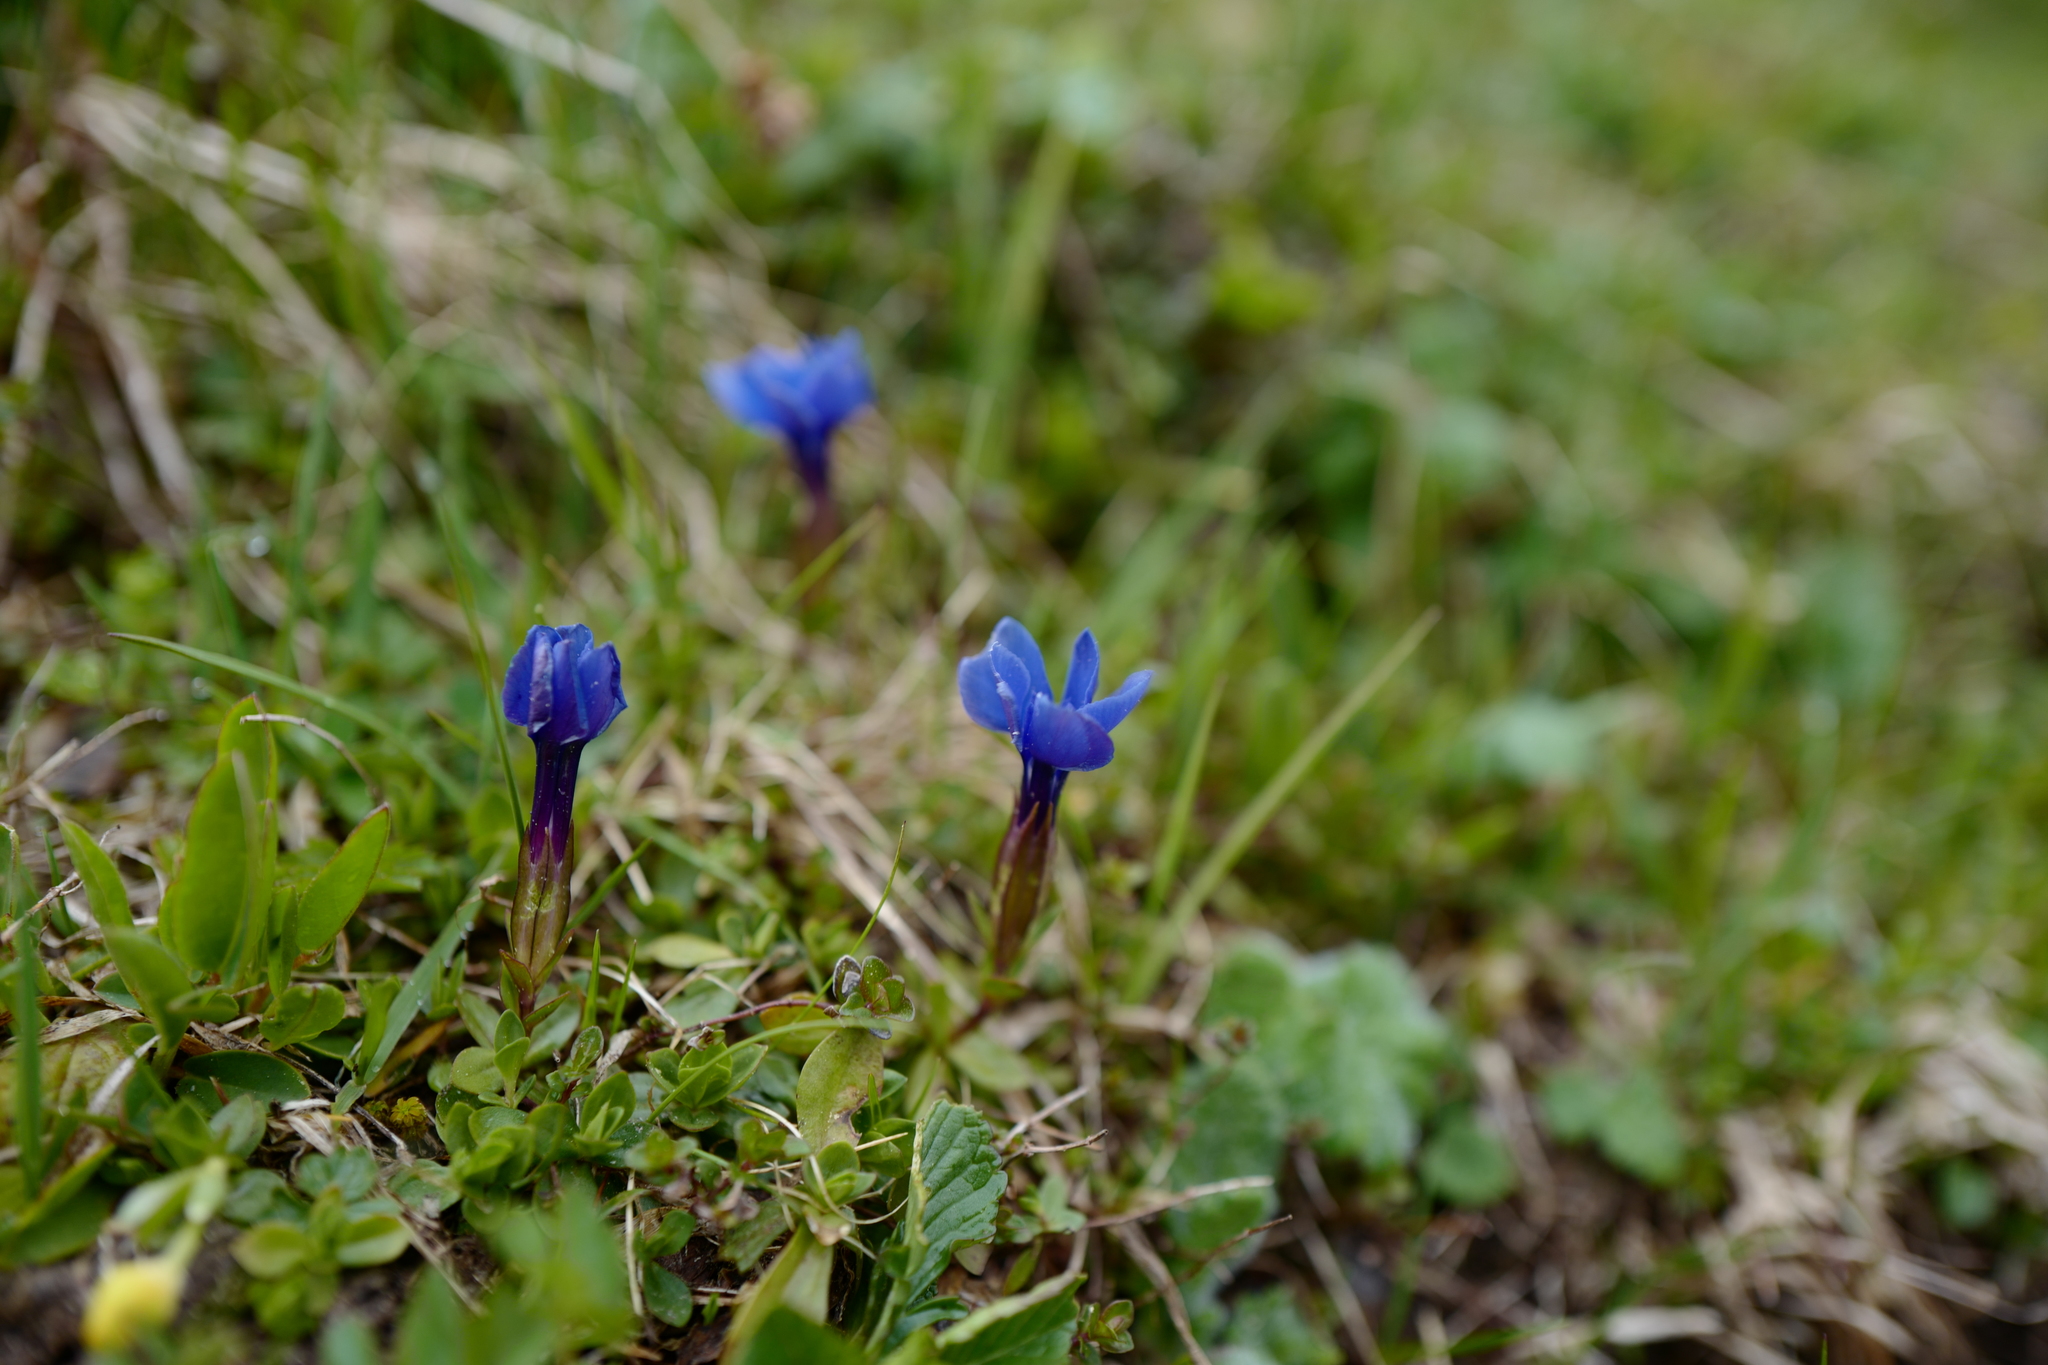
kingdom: Plantae
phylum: Tracheophyta
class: Magnoliopsida
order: Gentianales
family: Gentianaceae
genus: Gentiana
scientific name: Gentiana verna
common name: Spring gentian
